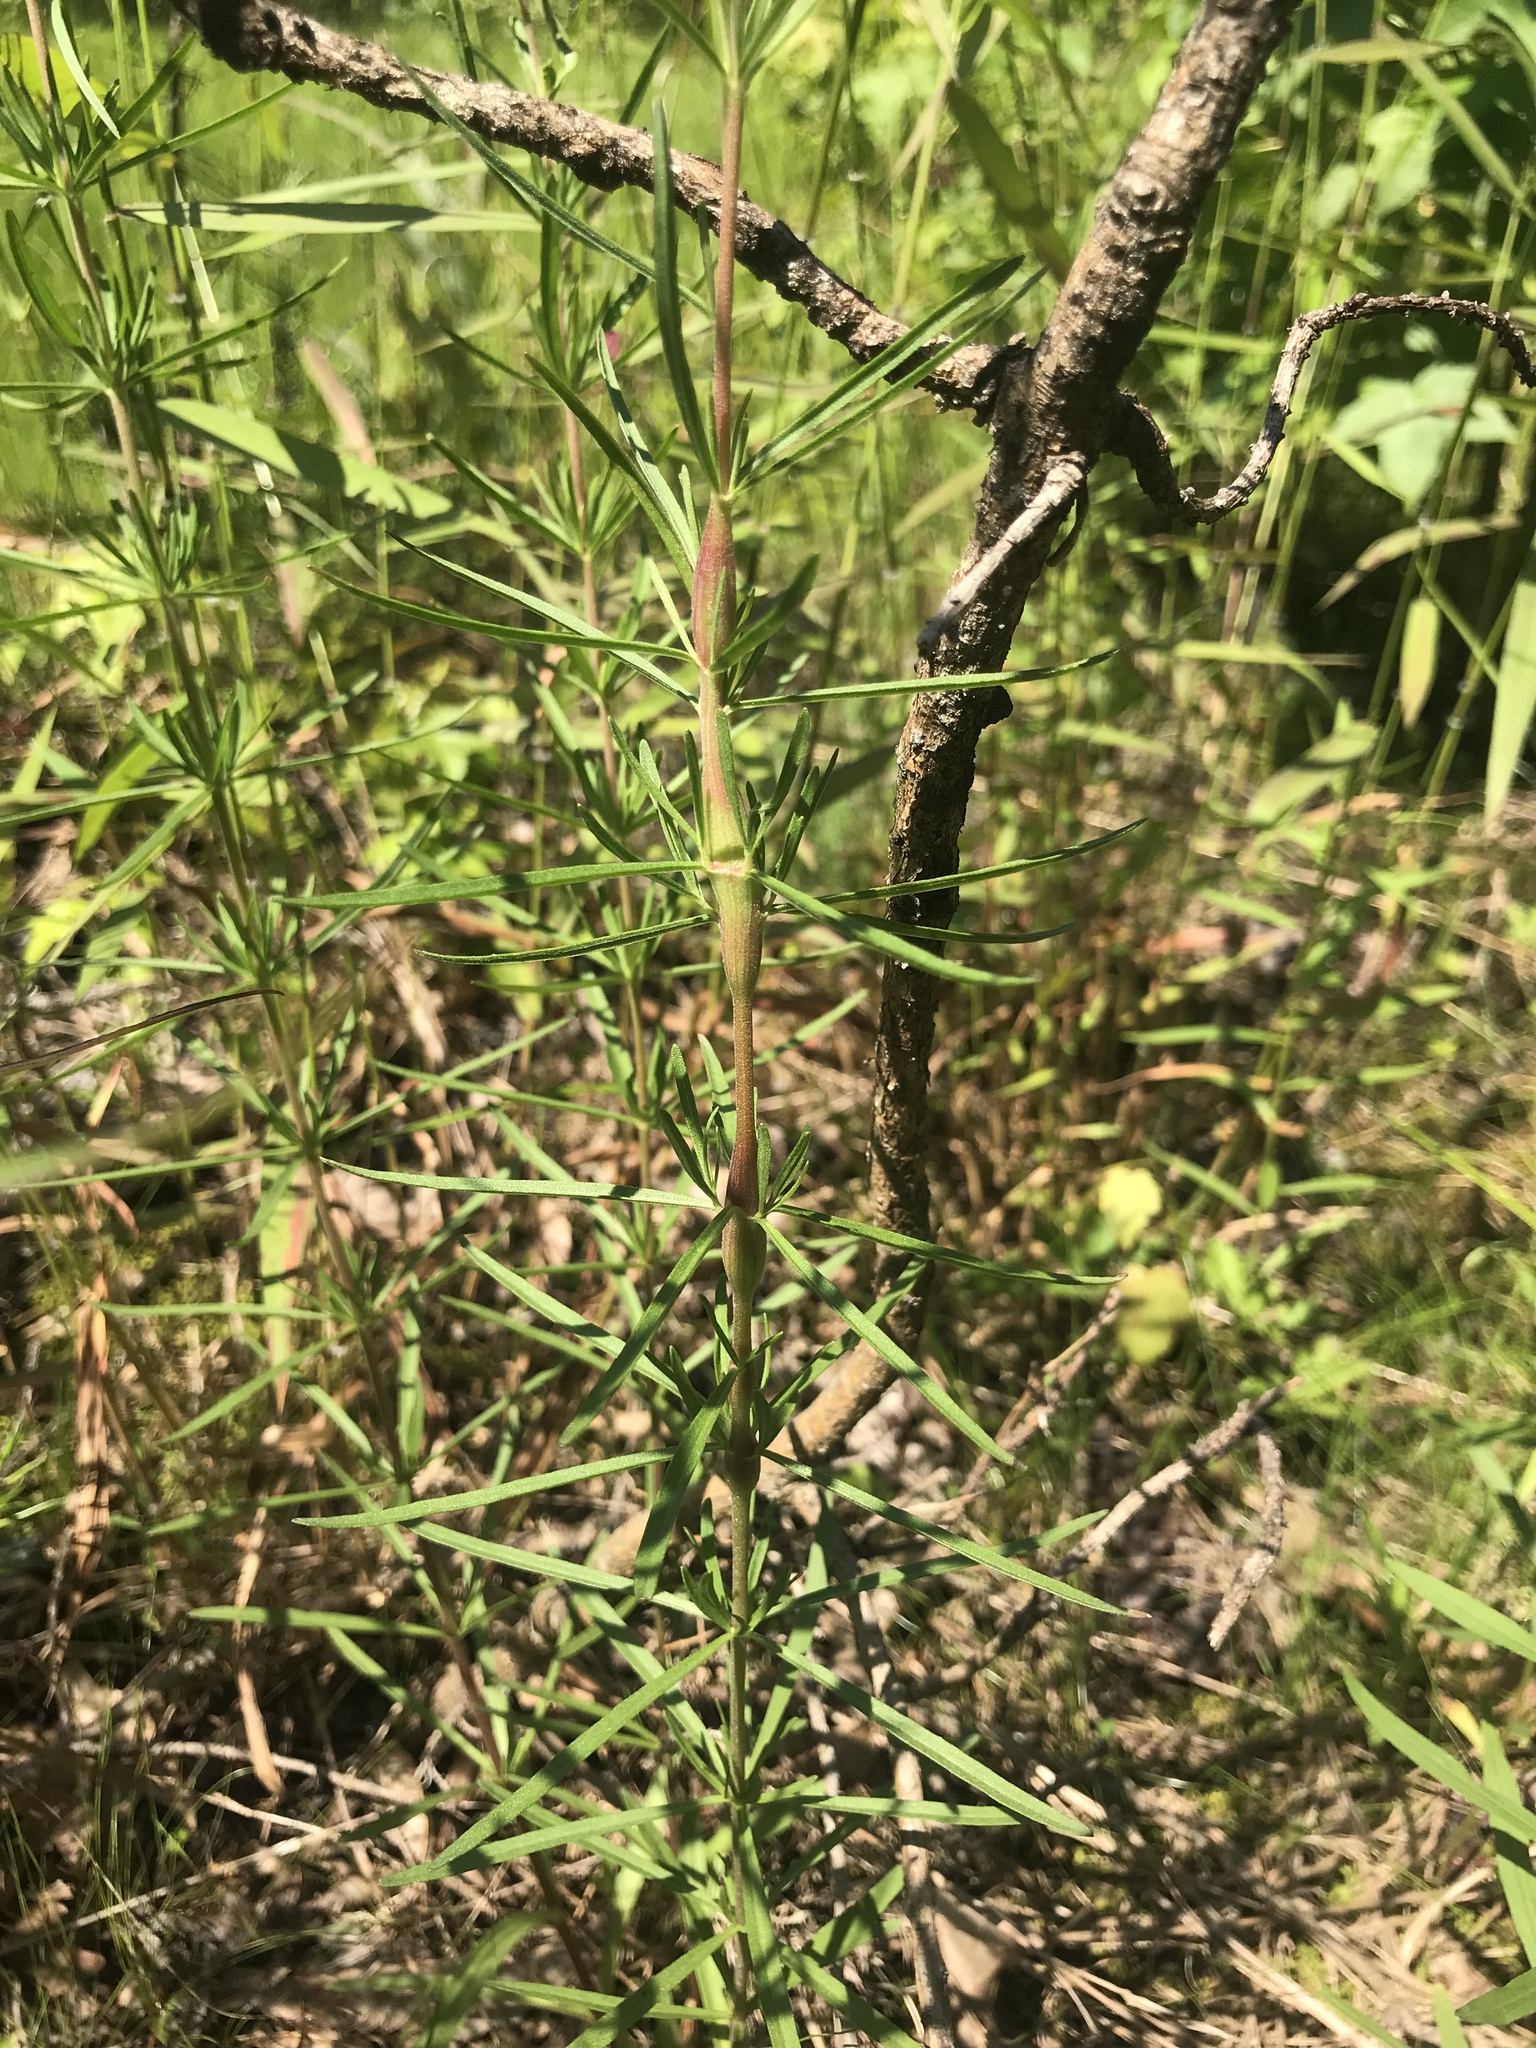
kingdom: Plantae
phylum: Tracheophyta
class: Magnoliopsida
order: Asterales
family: Asteraceae
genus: Eupatorium
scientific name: Eupatorium hyssopifolium
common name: Hyssop-leaf thoroughwort
